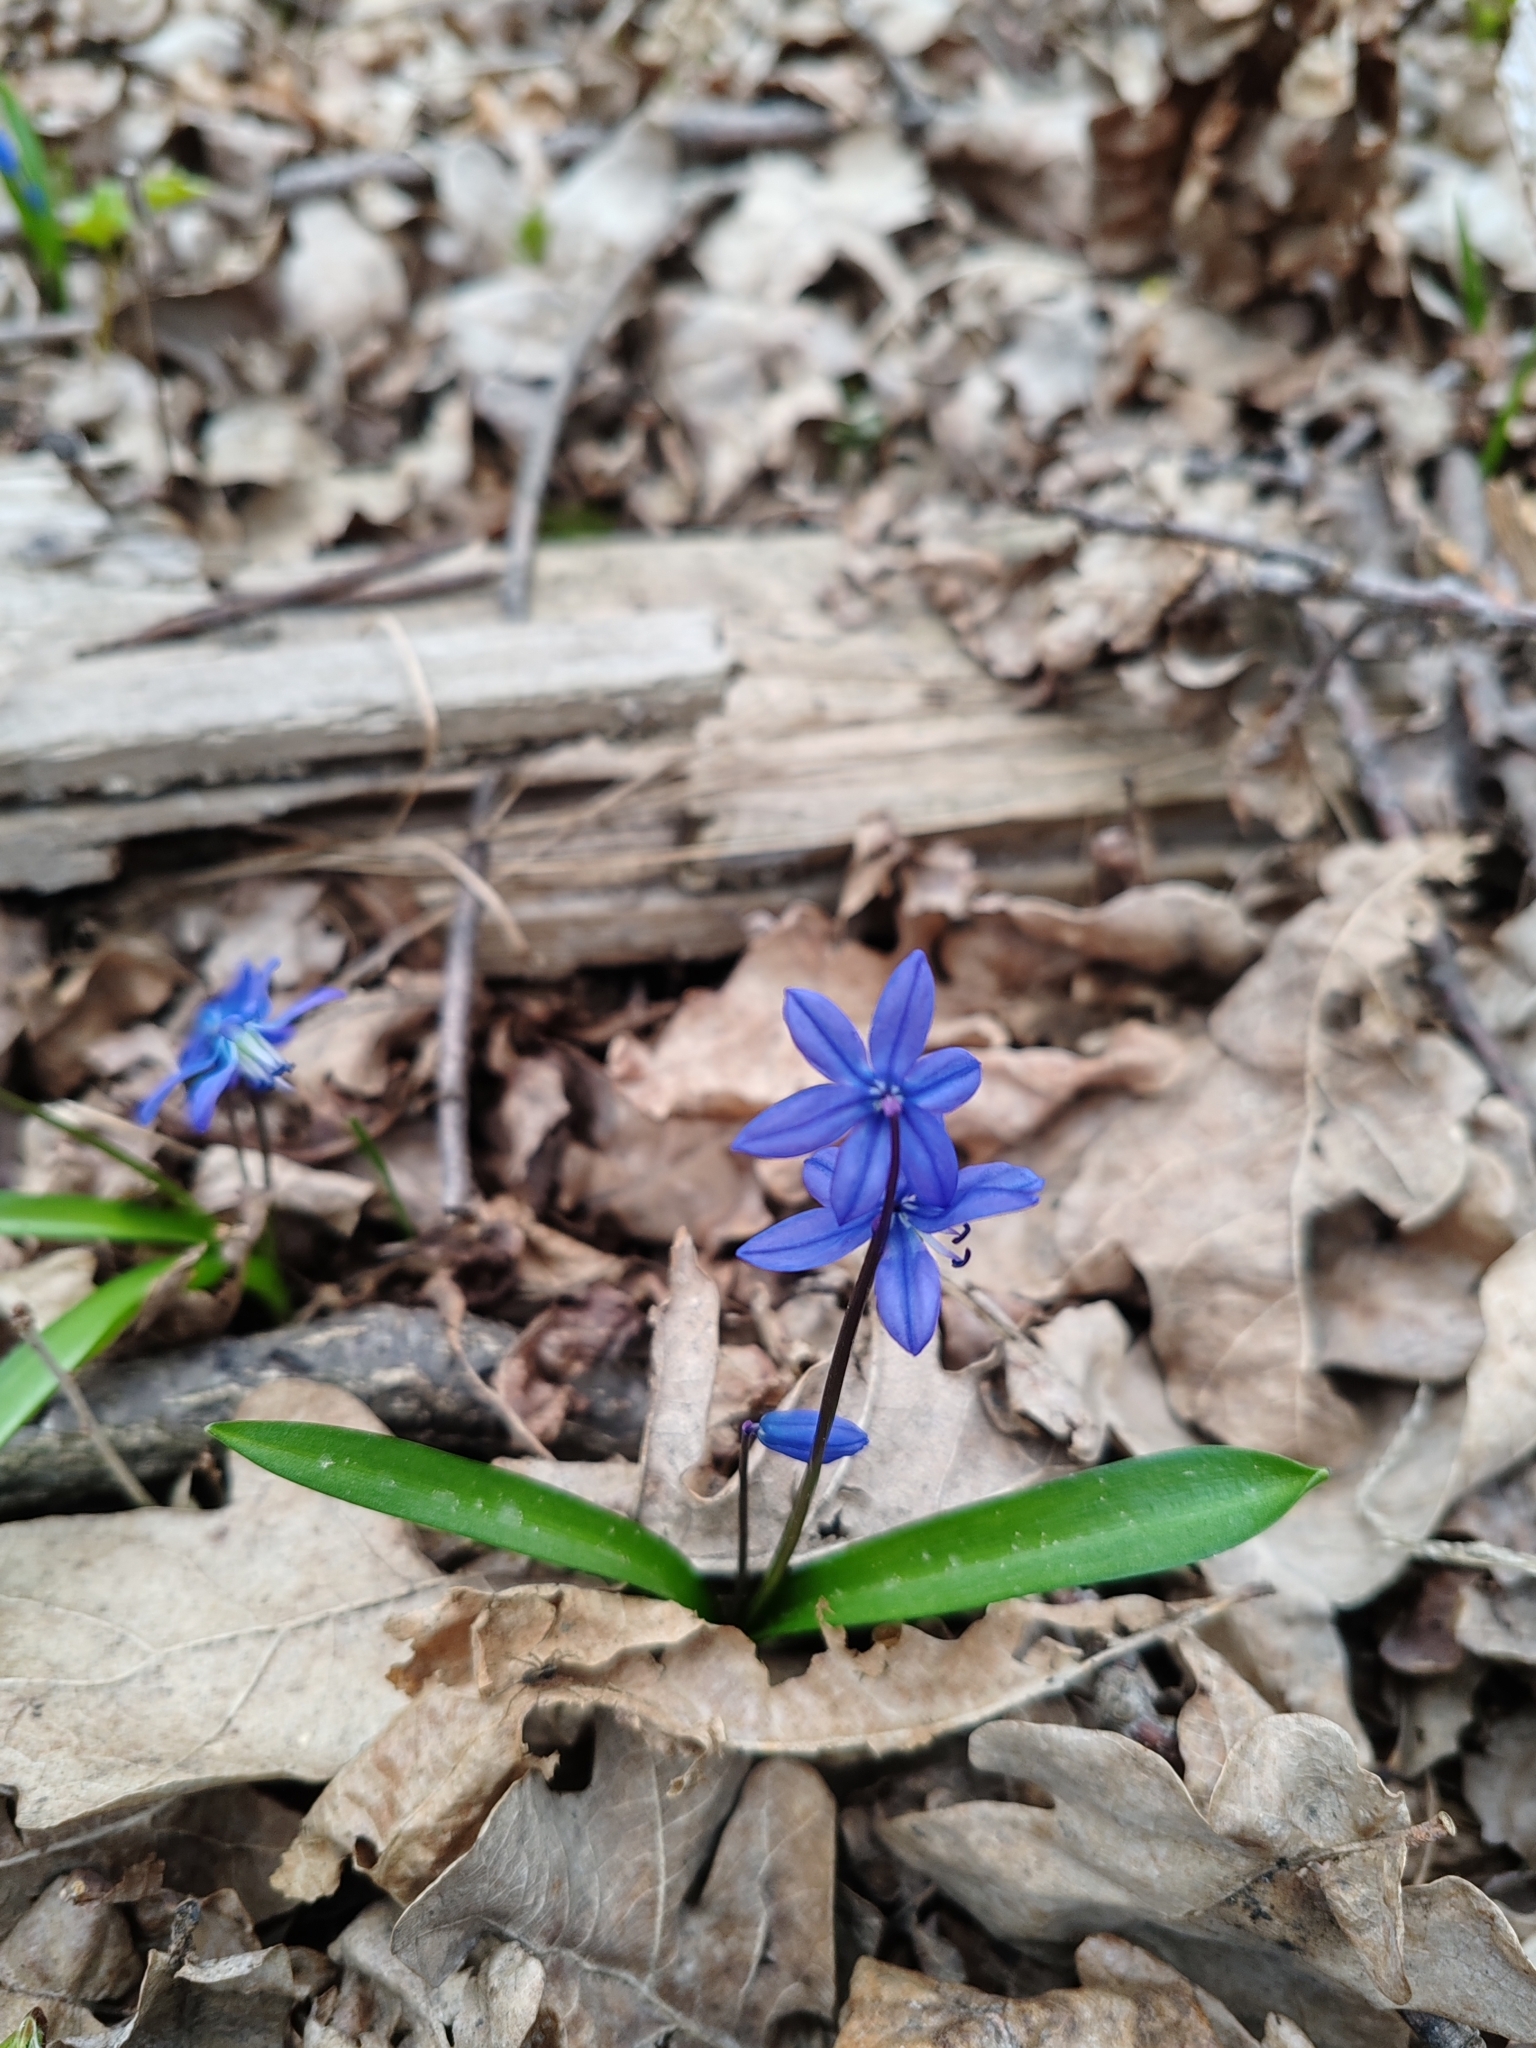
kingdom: Plantae
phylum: Tracheophyta
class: Liliopsida
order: Asparagales
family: Asparagaceae
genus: Scilla
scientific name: Scilla siberica
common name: Siberian squill
